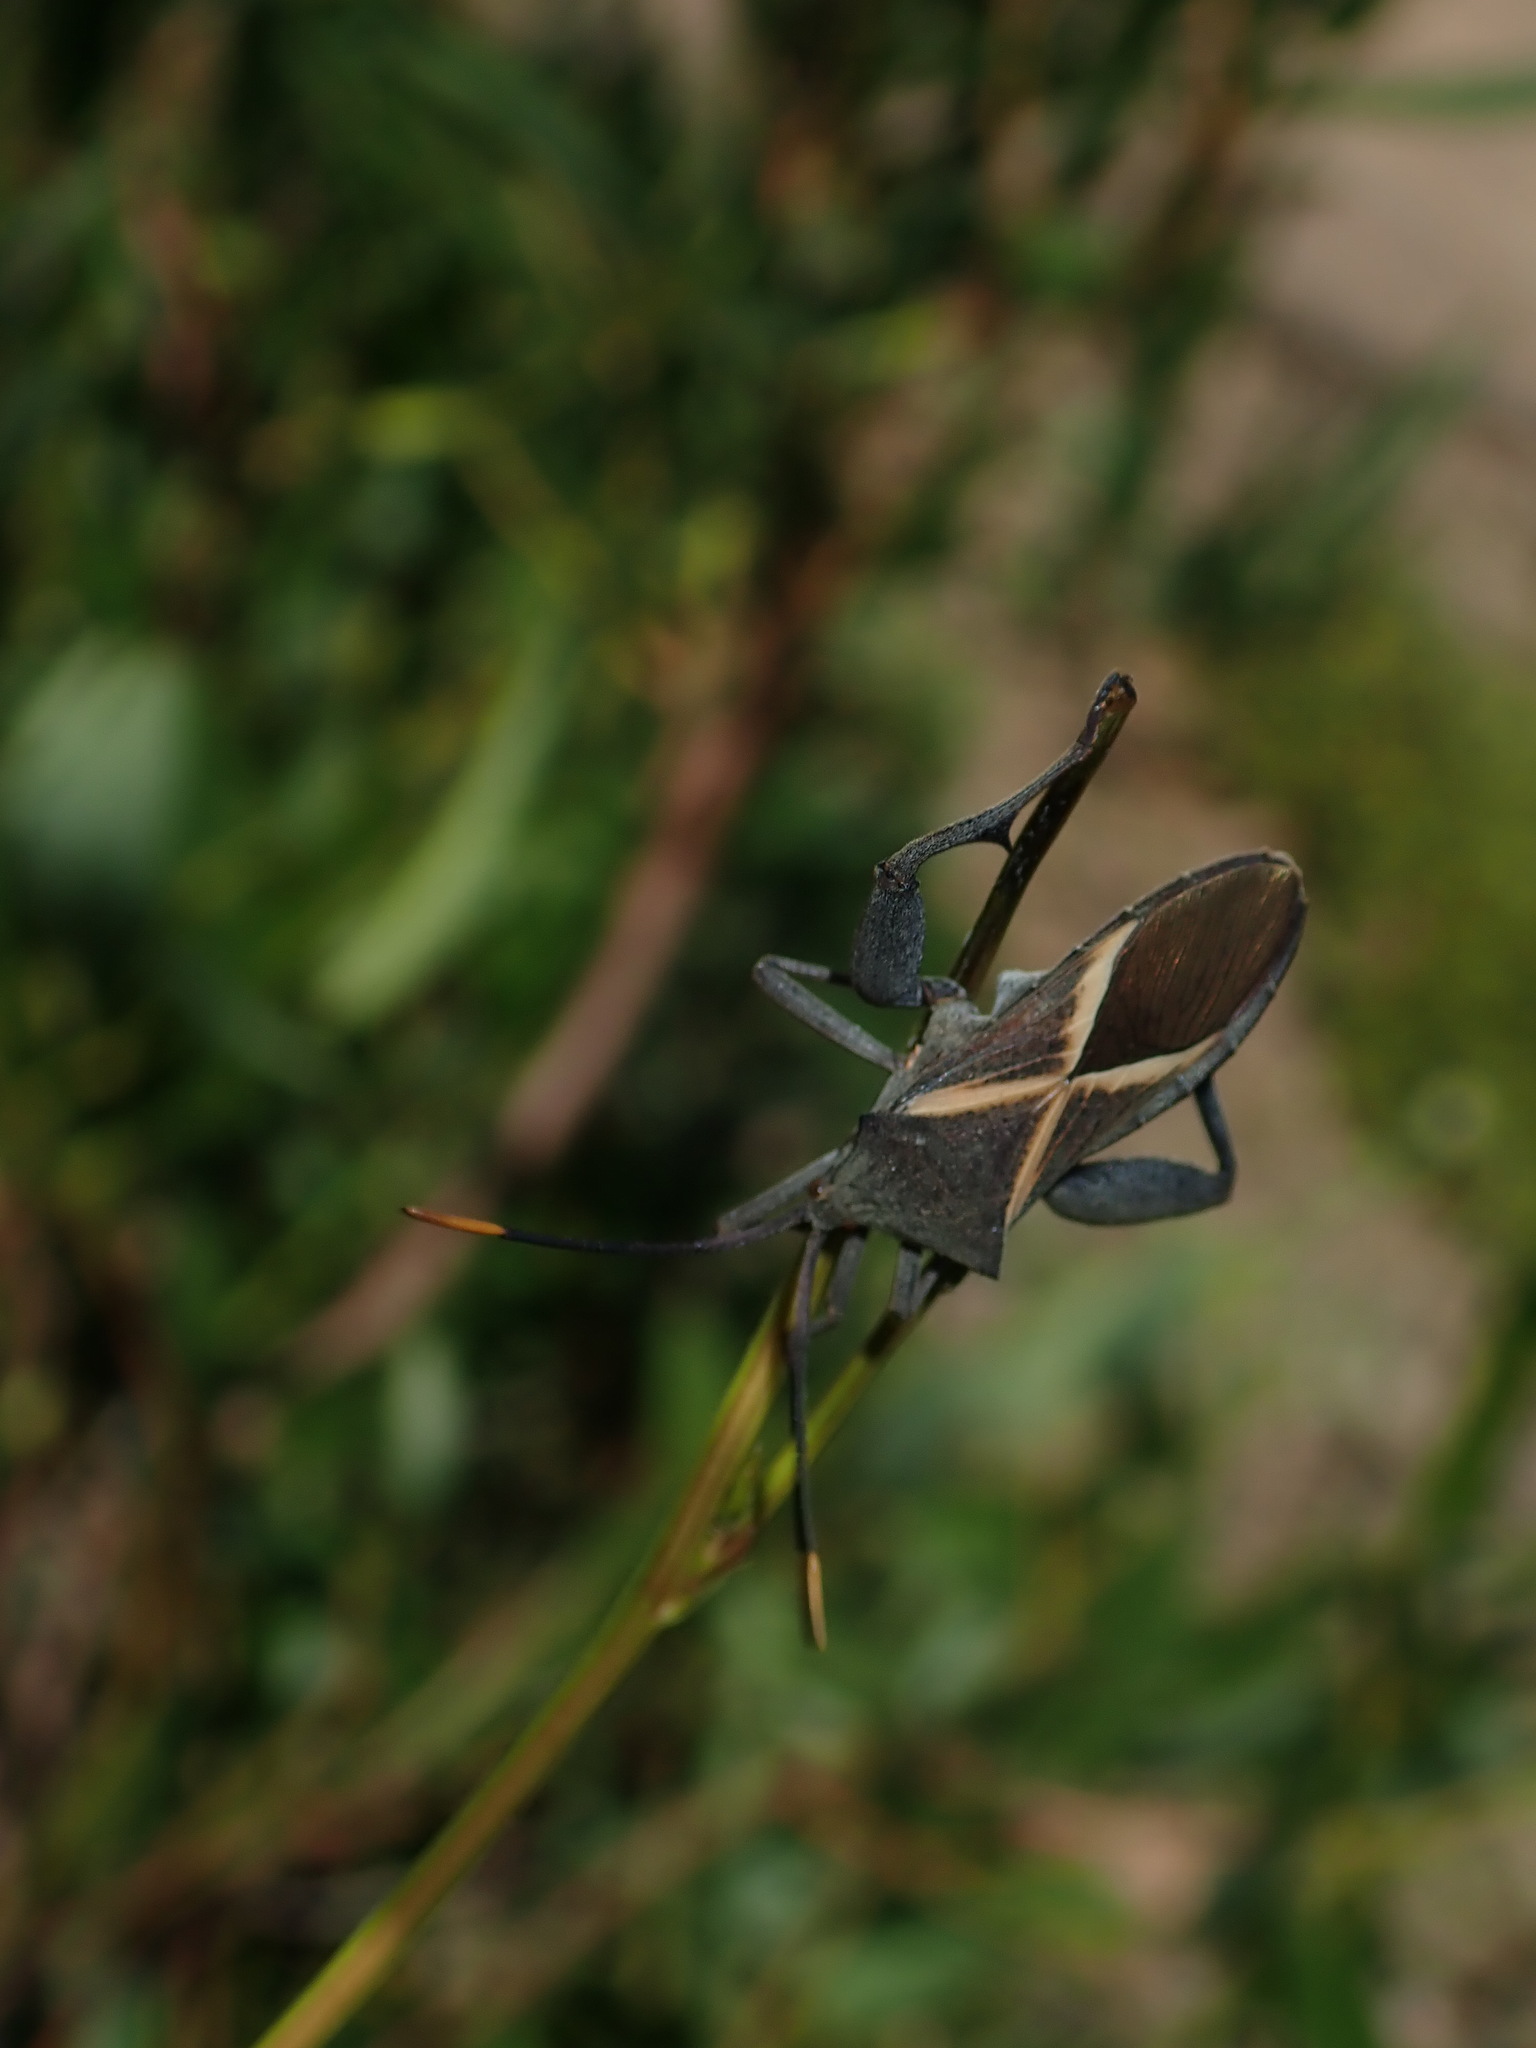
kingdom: Animalia
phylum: Arthropoda
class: Insecta
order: Hemiptera
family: Coreidae
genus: Mictis
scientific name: Mictis profana
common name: Crusader bug
